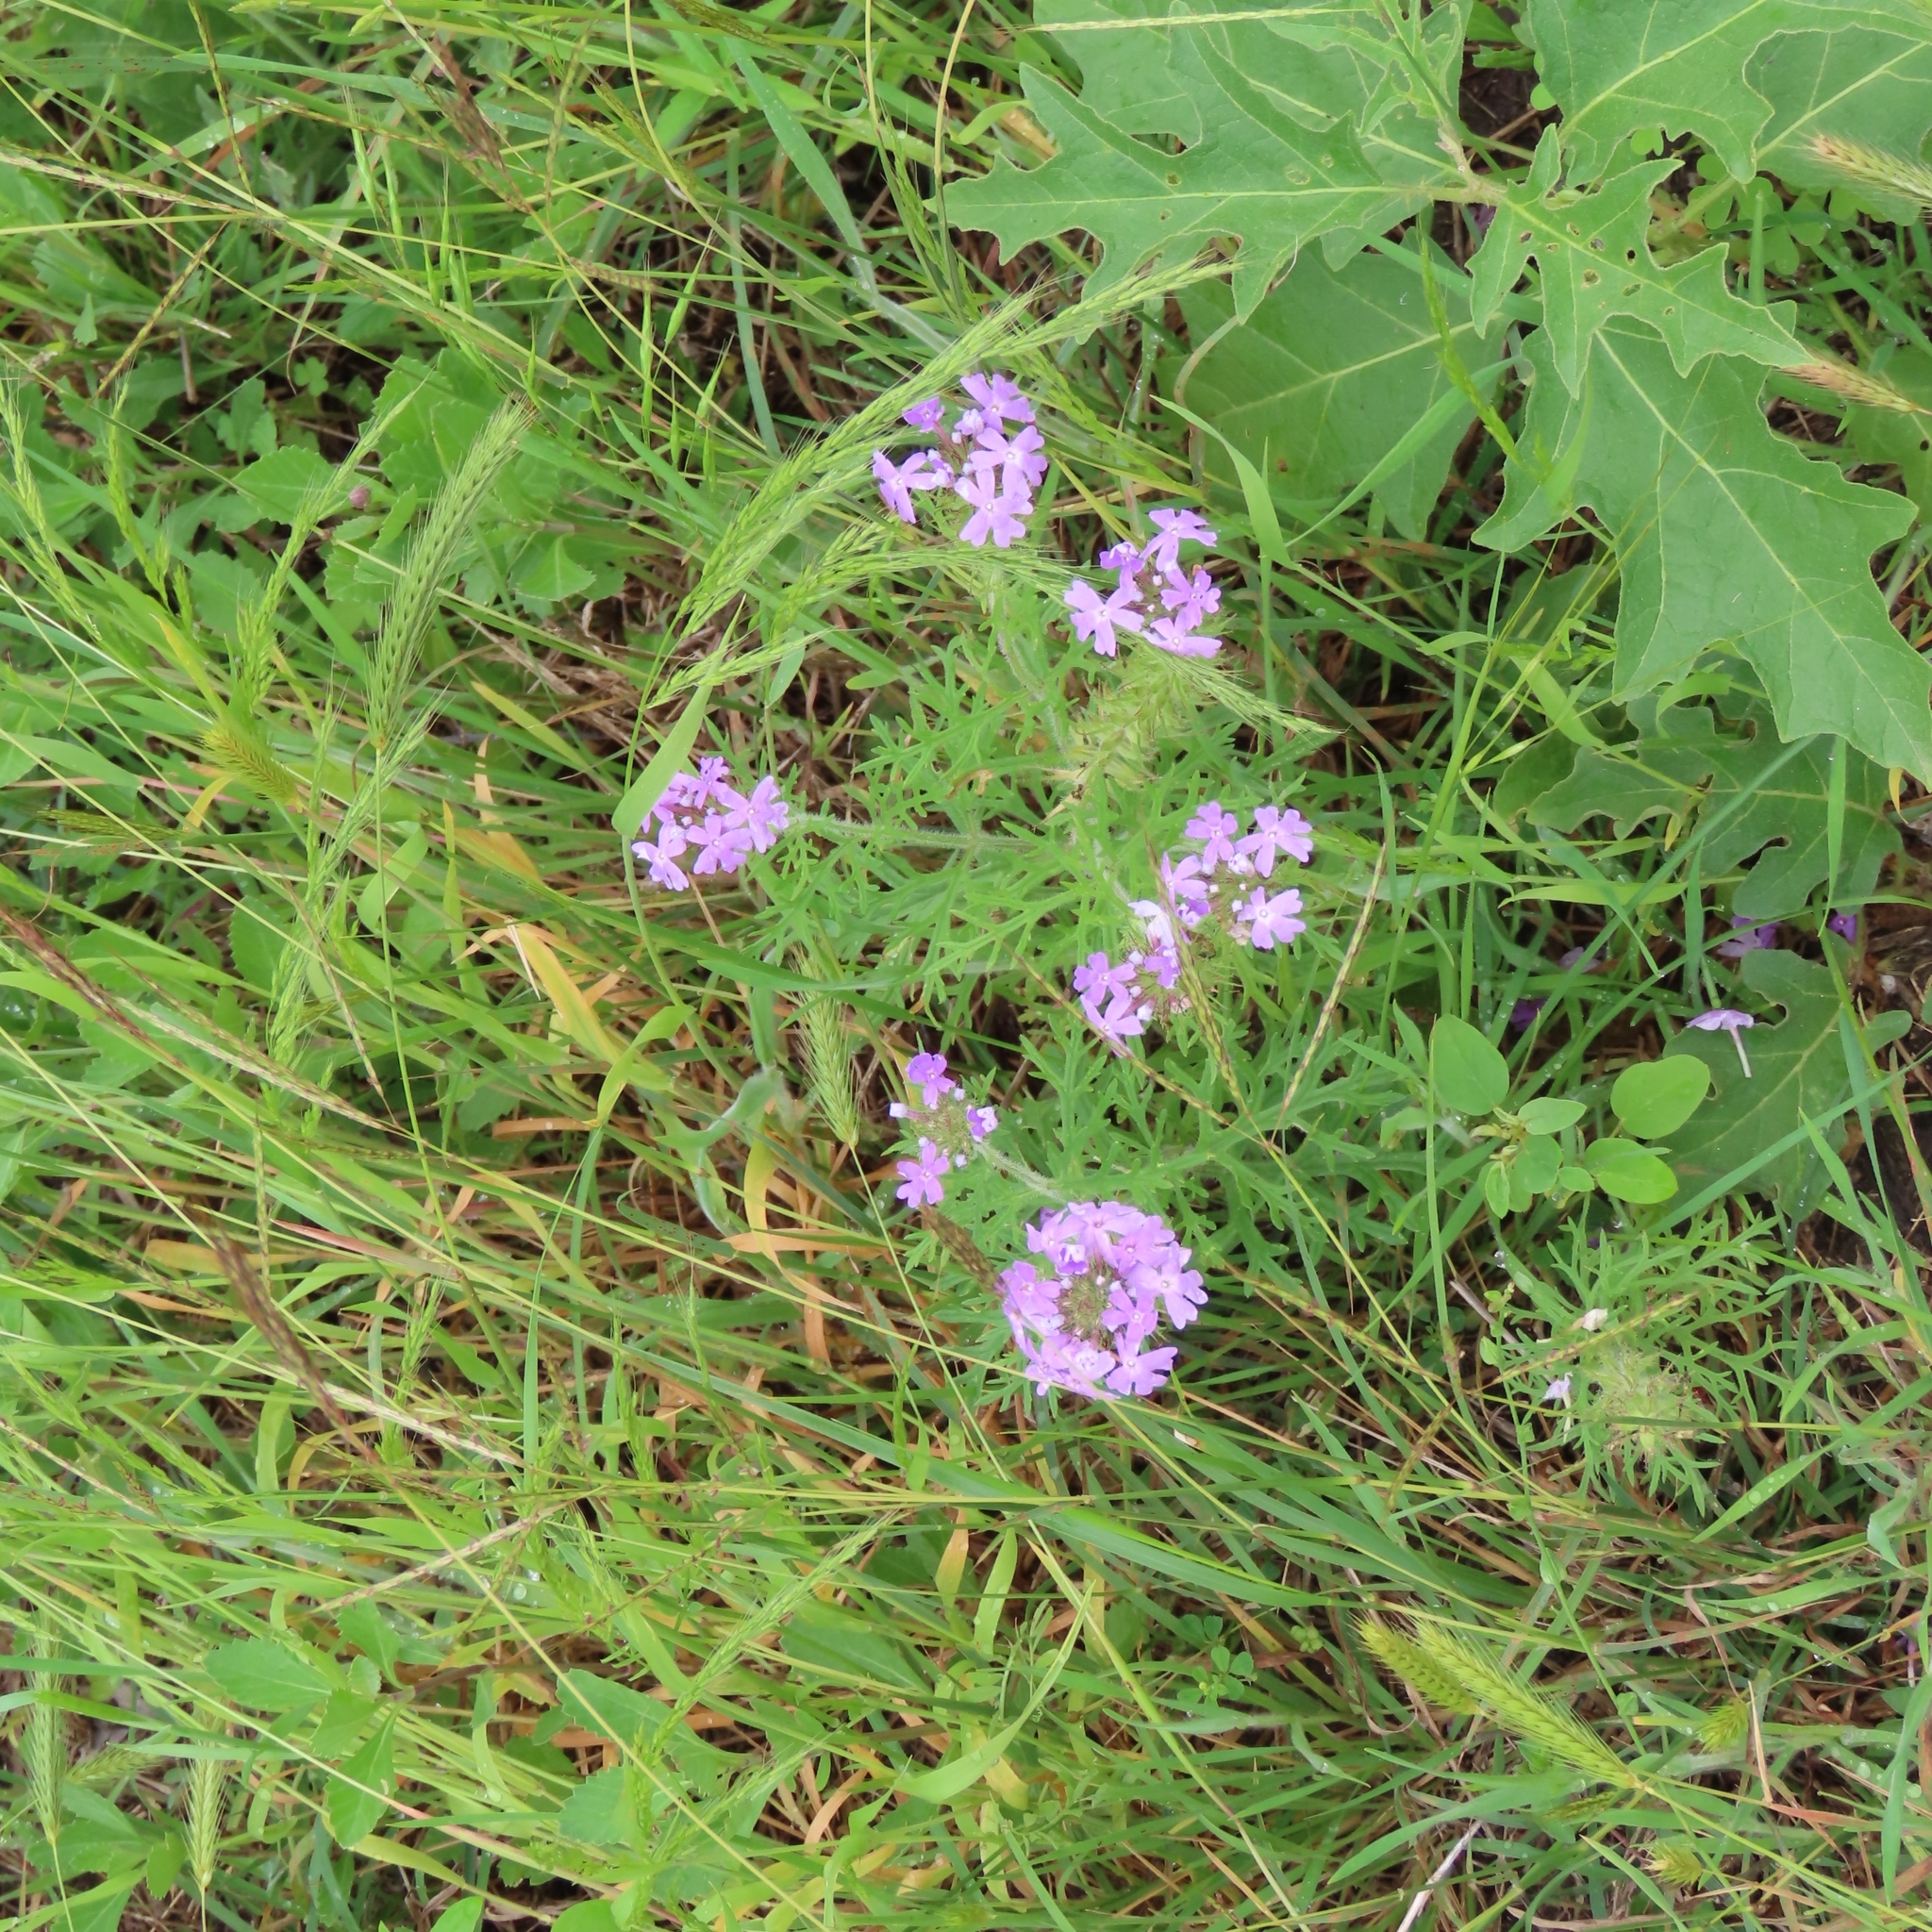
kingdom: Plantae
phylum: Tracheophyta
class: Magnoliopsida
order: Lamiales
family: Verbenaceae
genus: Verbena
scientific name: Verbena bipinnatifida
